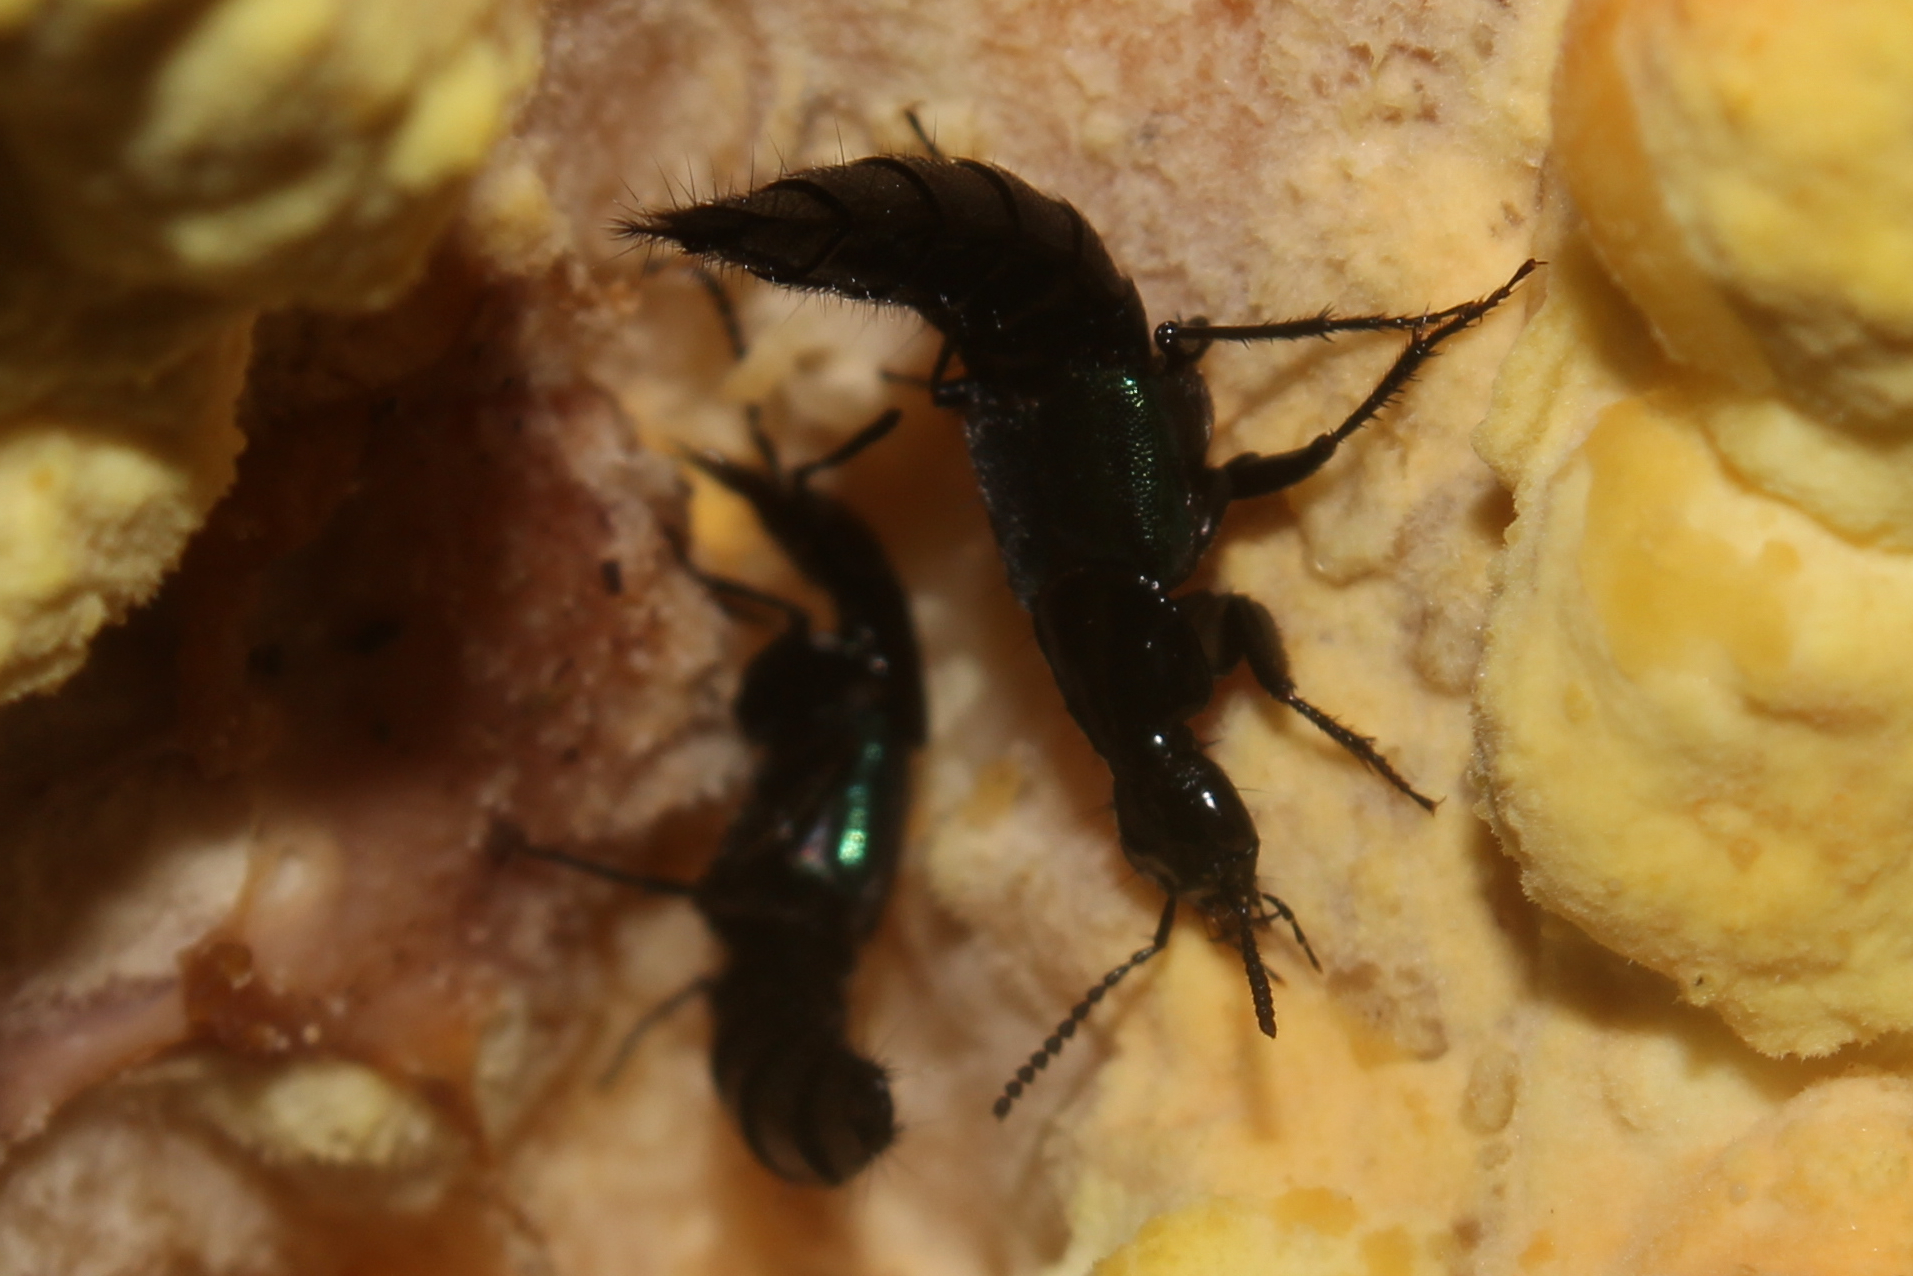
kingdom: Animalia
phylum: Arthropoda
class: Insecta
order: Coleoptera
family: Staphylinidae
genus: Philonthus
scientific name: Philonthus caeruleipennis
